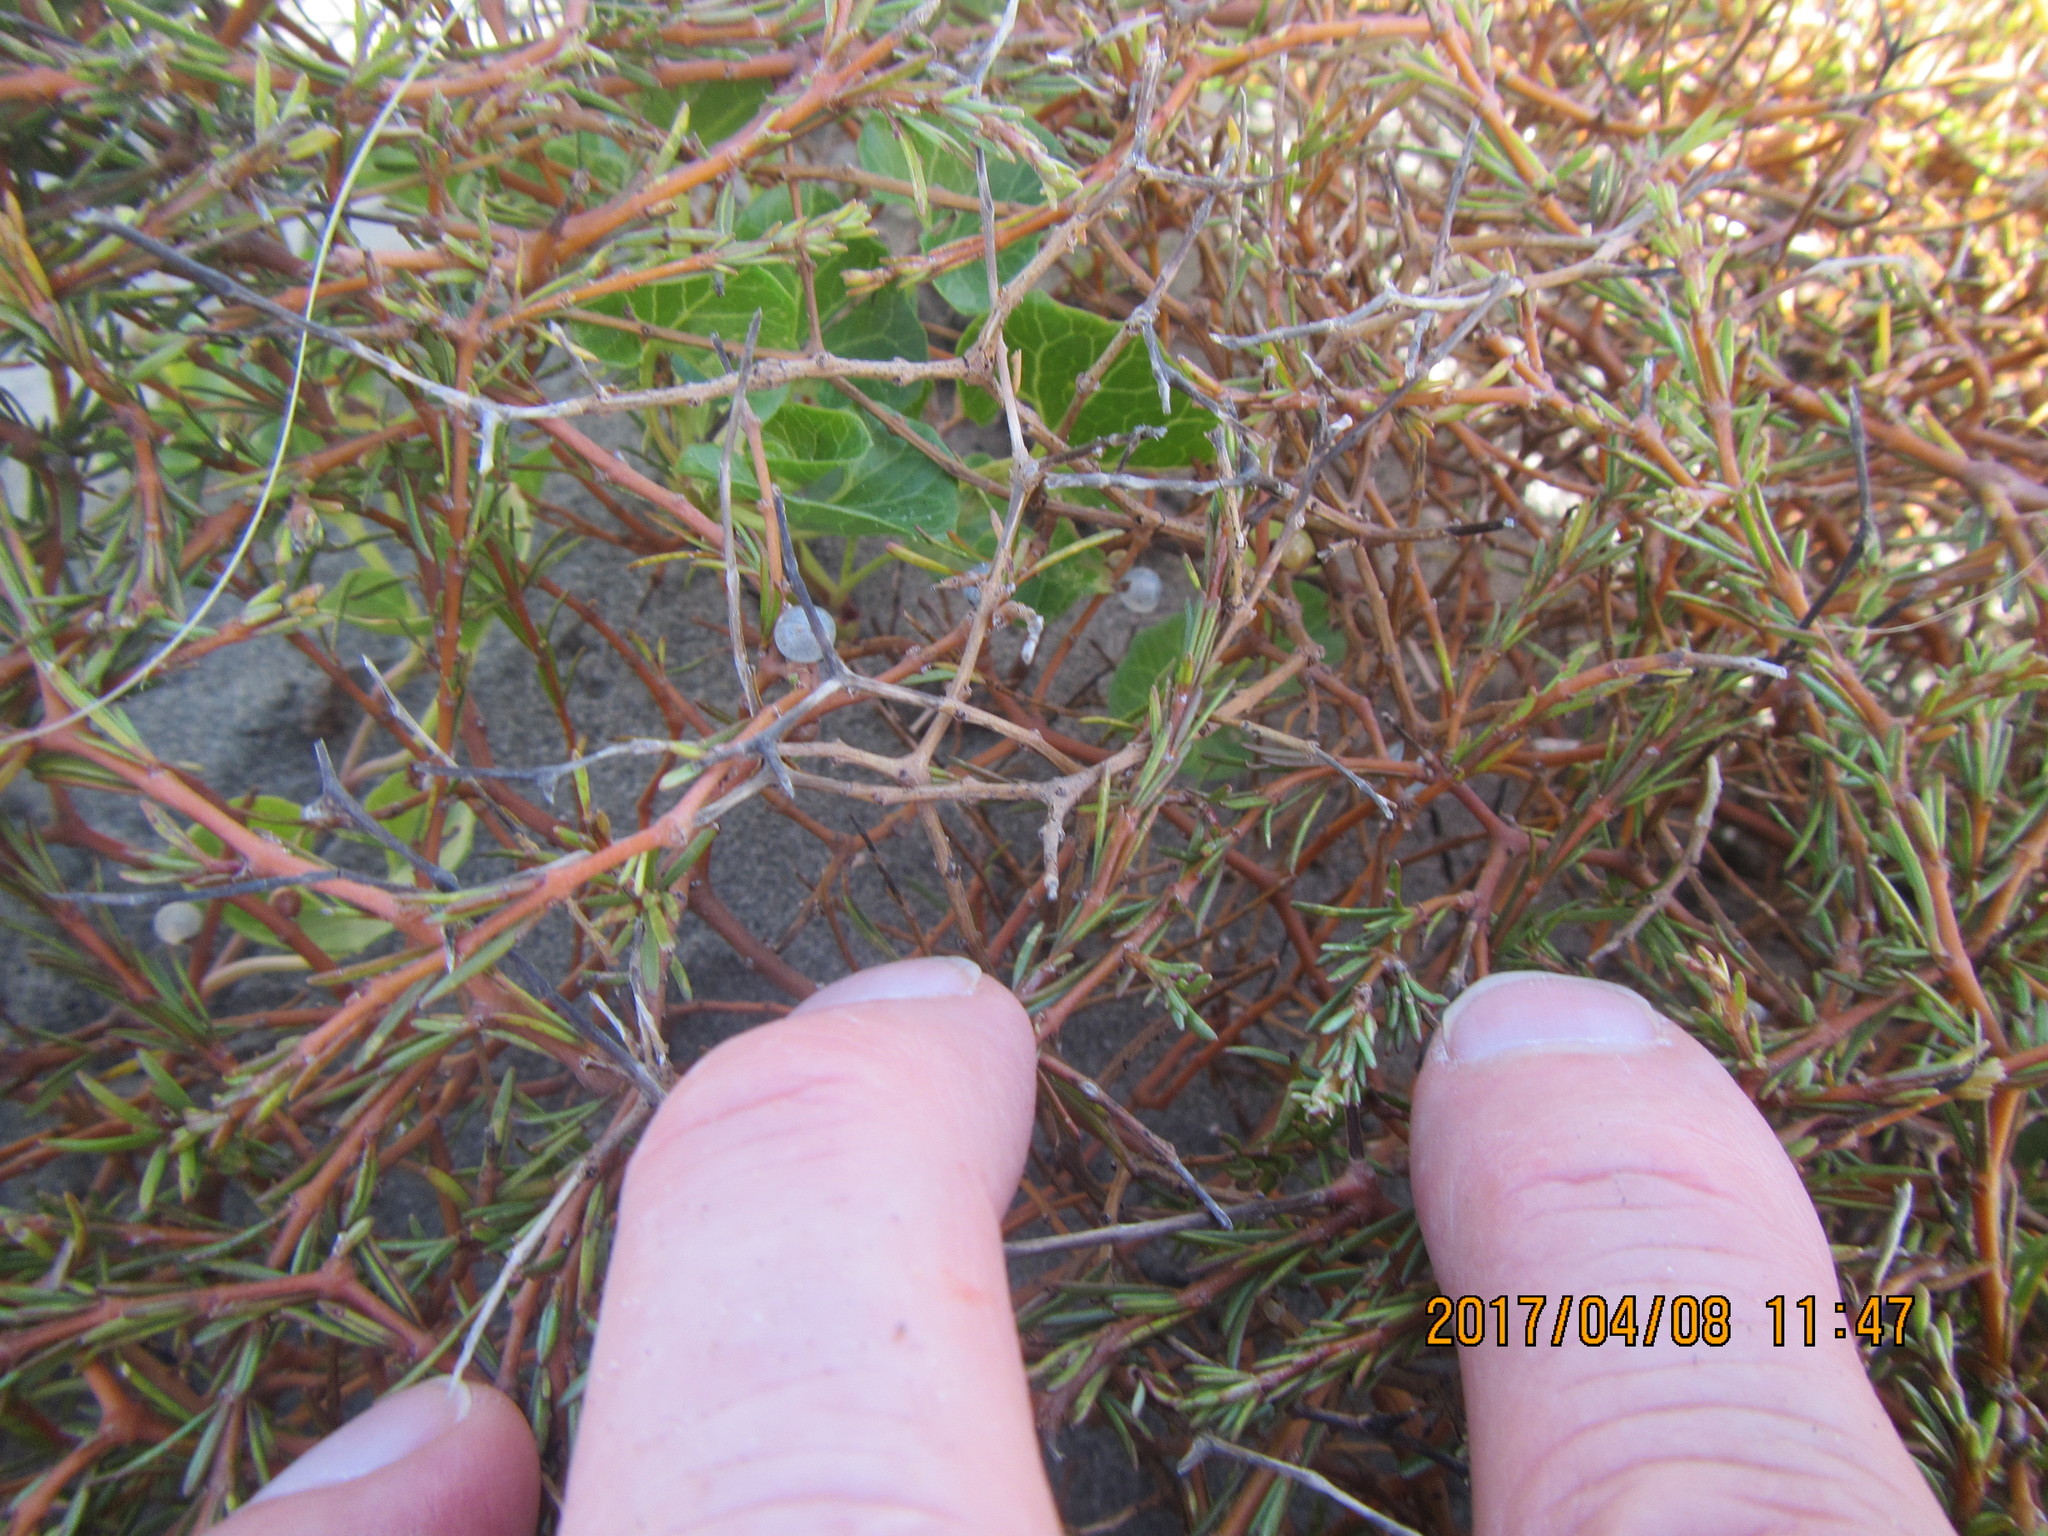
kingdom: Plantae
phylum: Tracheophyta
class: Magnoliopsida
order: Gentianales
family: Rubiaceae
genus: Coprosma
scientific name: Coprosma acerosa
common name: Sand coprosma
